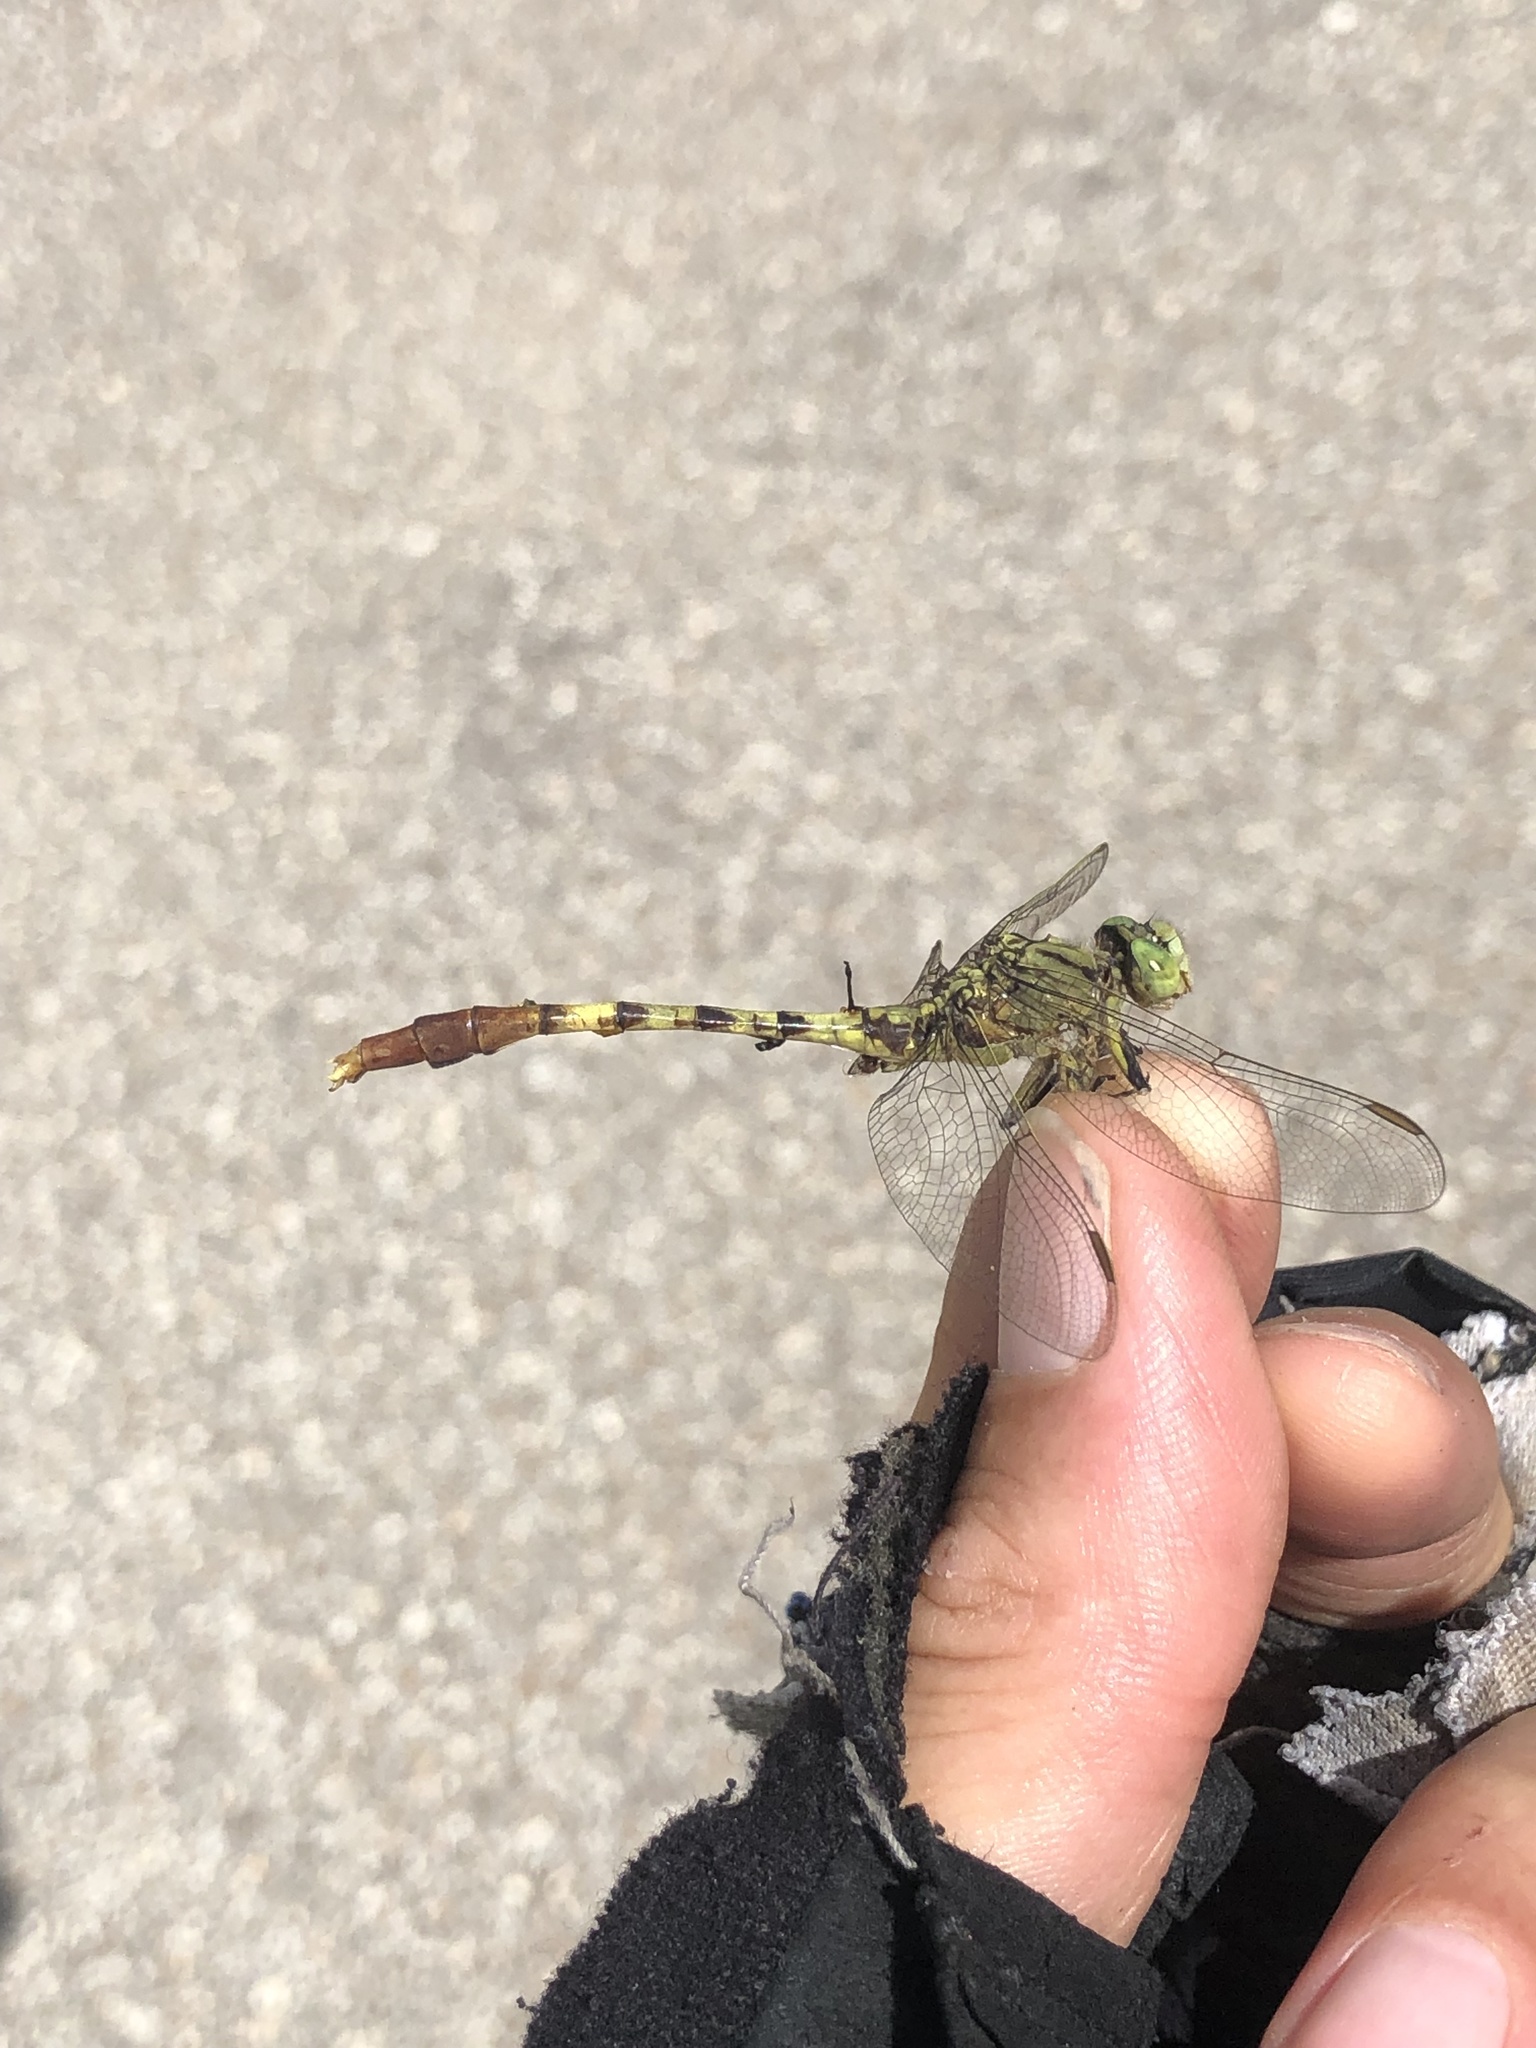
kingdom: Animalia
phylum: Arthropoda
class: Insecta
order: Odonata
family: Gomphidae
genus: Arigomphus
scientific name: Arigomphus submedianus
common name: Jade clubtail
